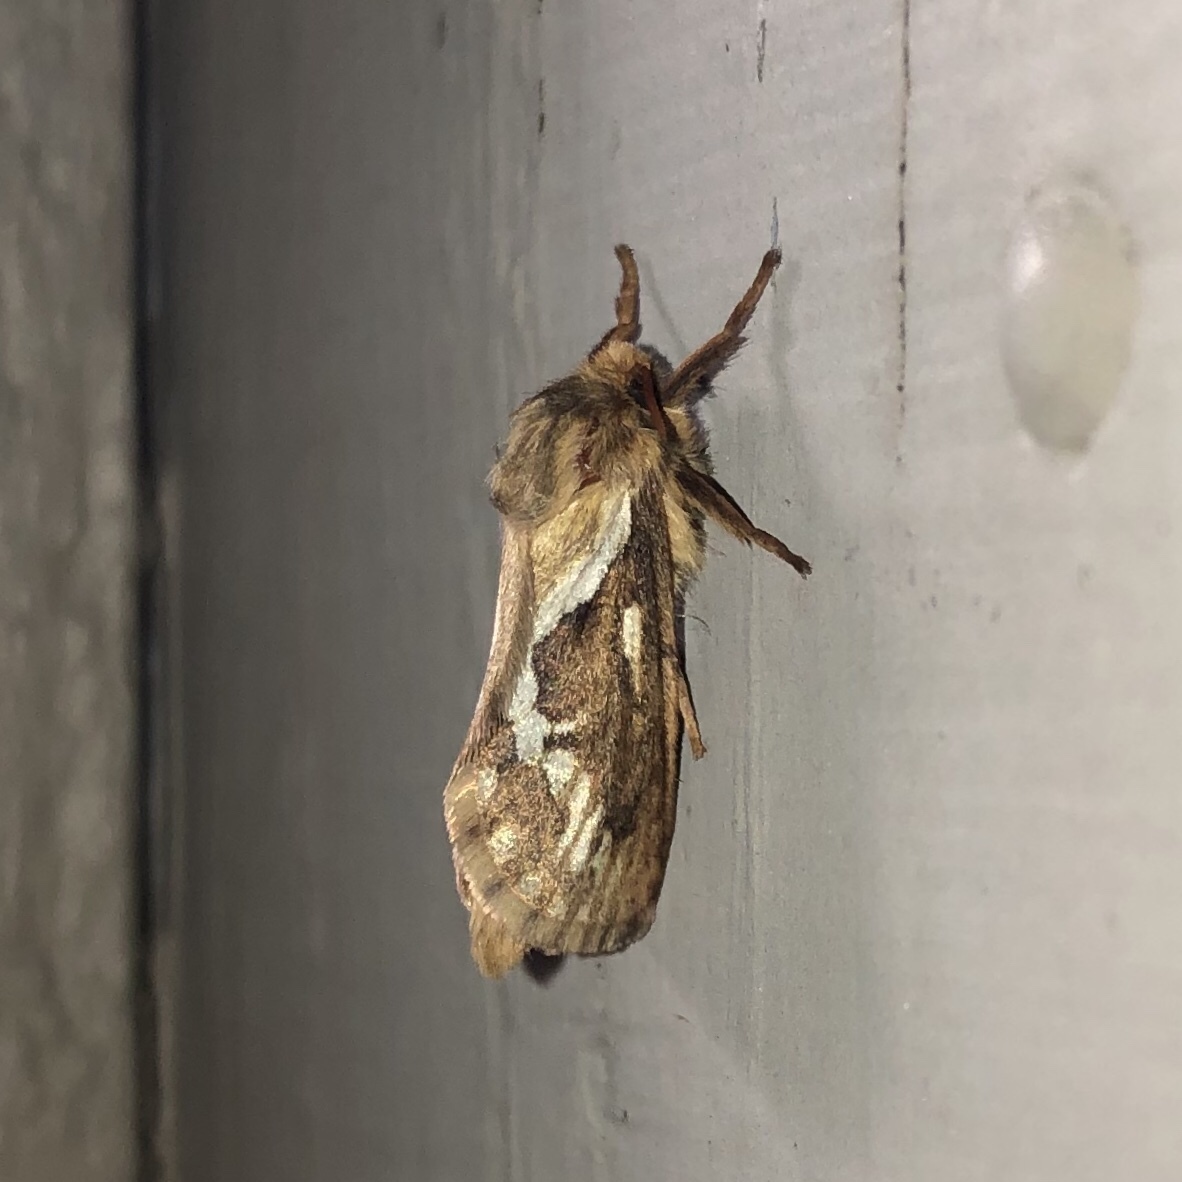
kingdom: Animalia
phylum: Arthropoda
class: Insecta
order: Lepidoptera
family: Hepialidae
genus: Korscheltellus
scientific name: Korscheltellus lupulina
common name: Common swift
